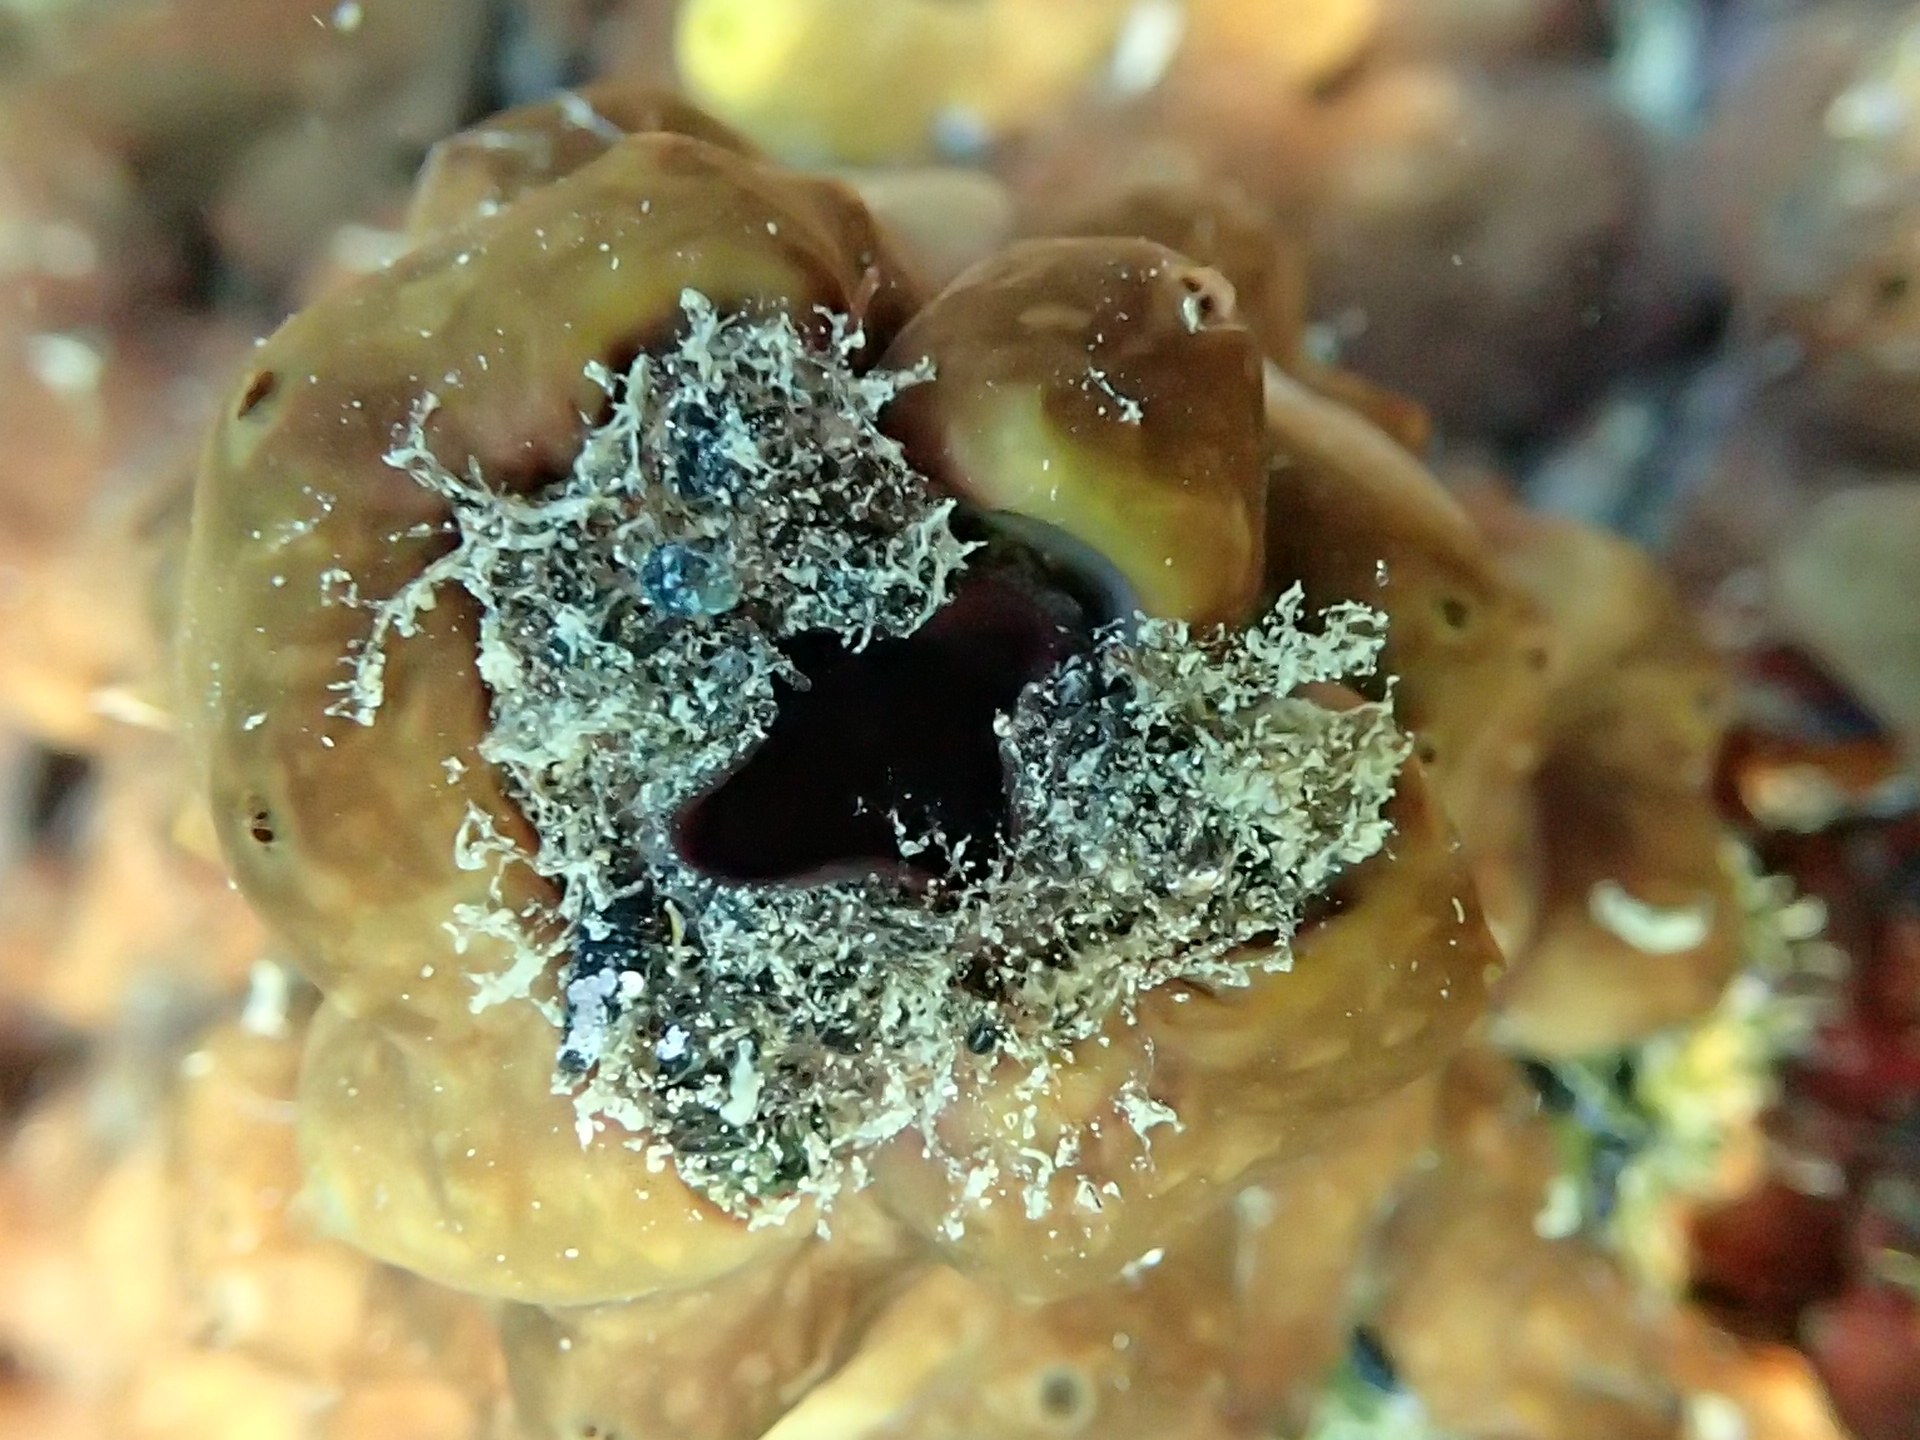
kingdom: Animalia
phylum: Porifera
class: Demospongiae
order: Chondrillida
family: Chondrillidae
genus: Chondrilla
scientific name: Chondrilla nucula
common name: Chicken liver sponge
